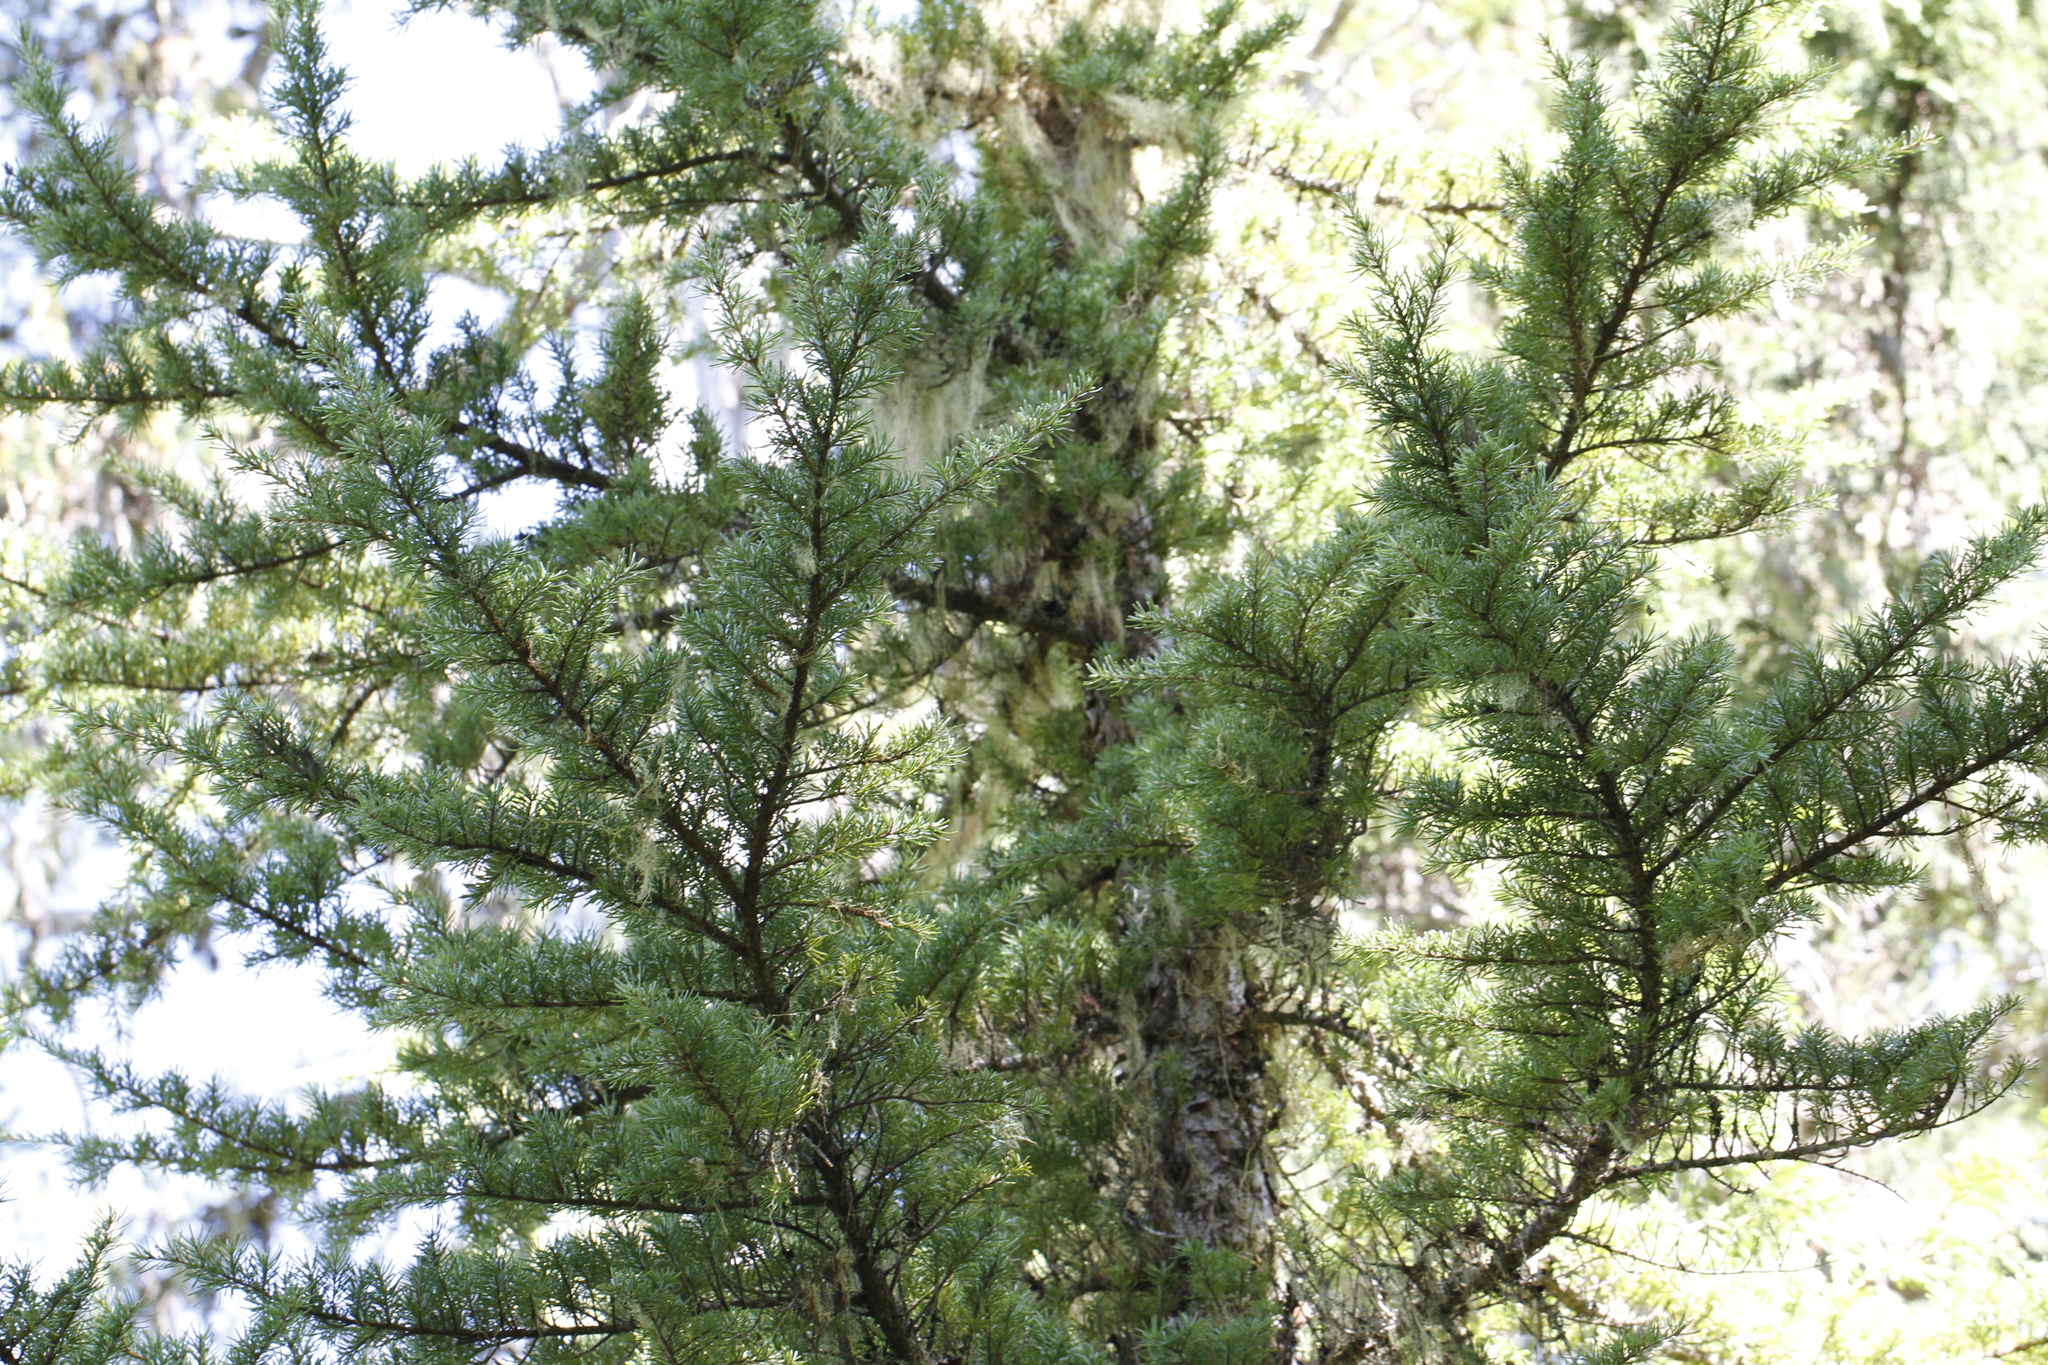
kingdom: Plantae
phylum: Tracheophyta
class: Pinopsida
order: Pinales
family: Pinaceae
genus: Tsuga
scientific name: Tsuga mertensiana
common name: Mountain hemlock
